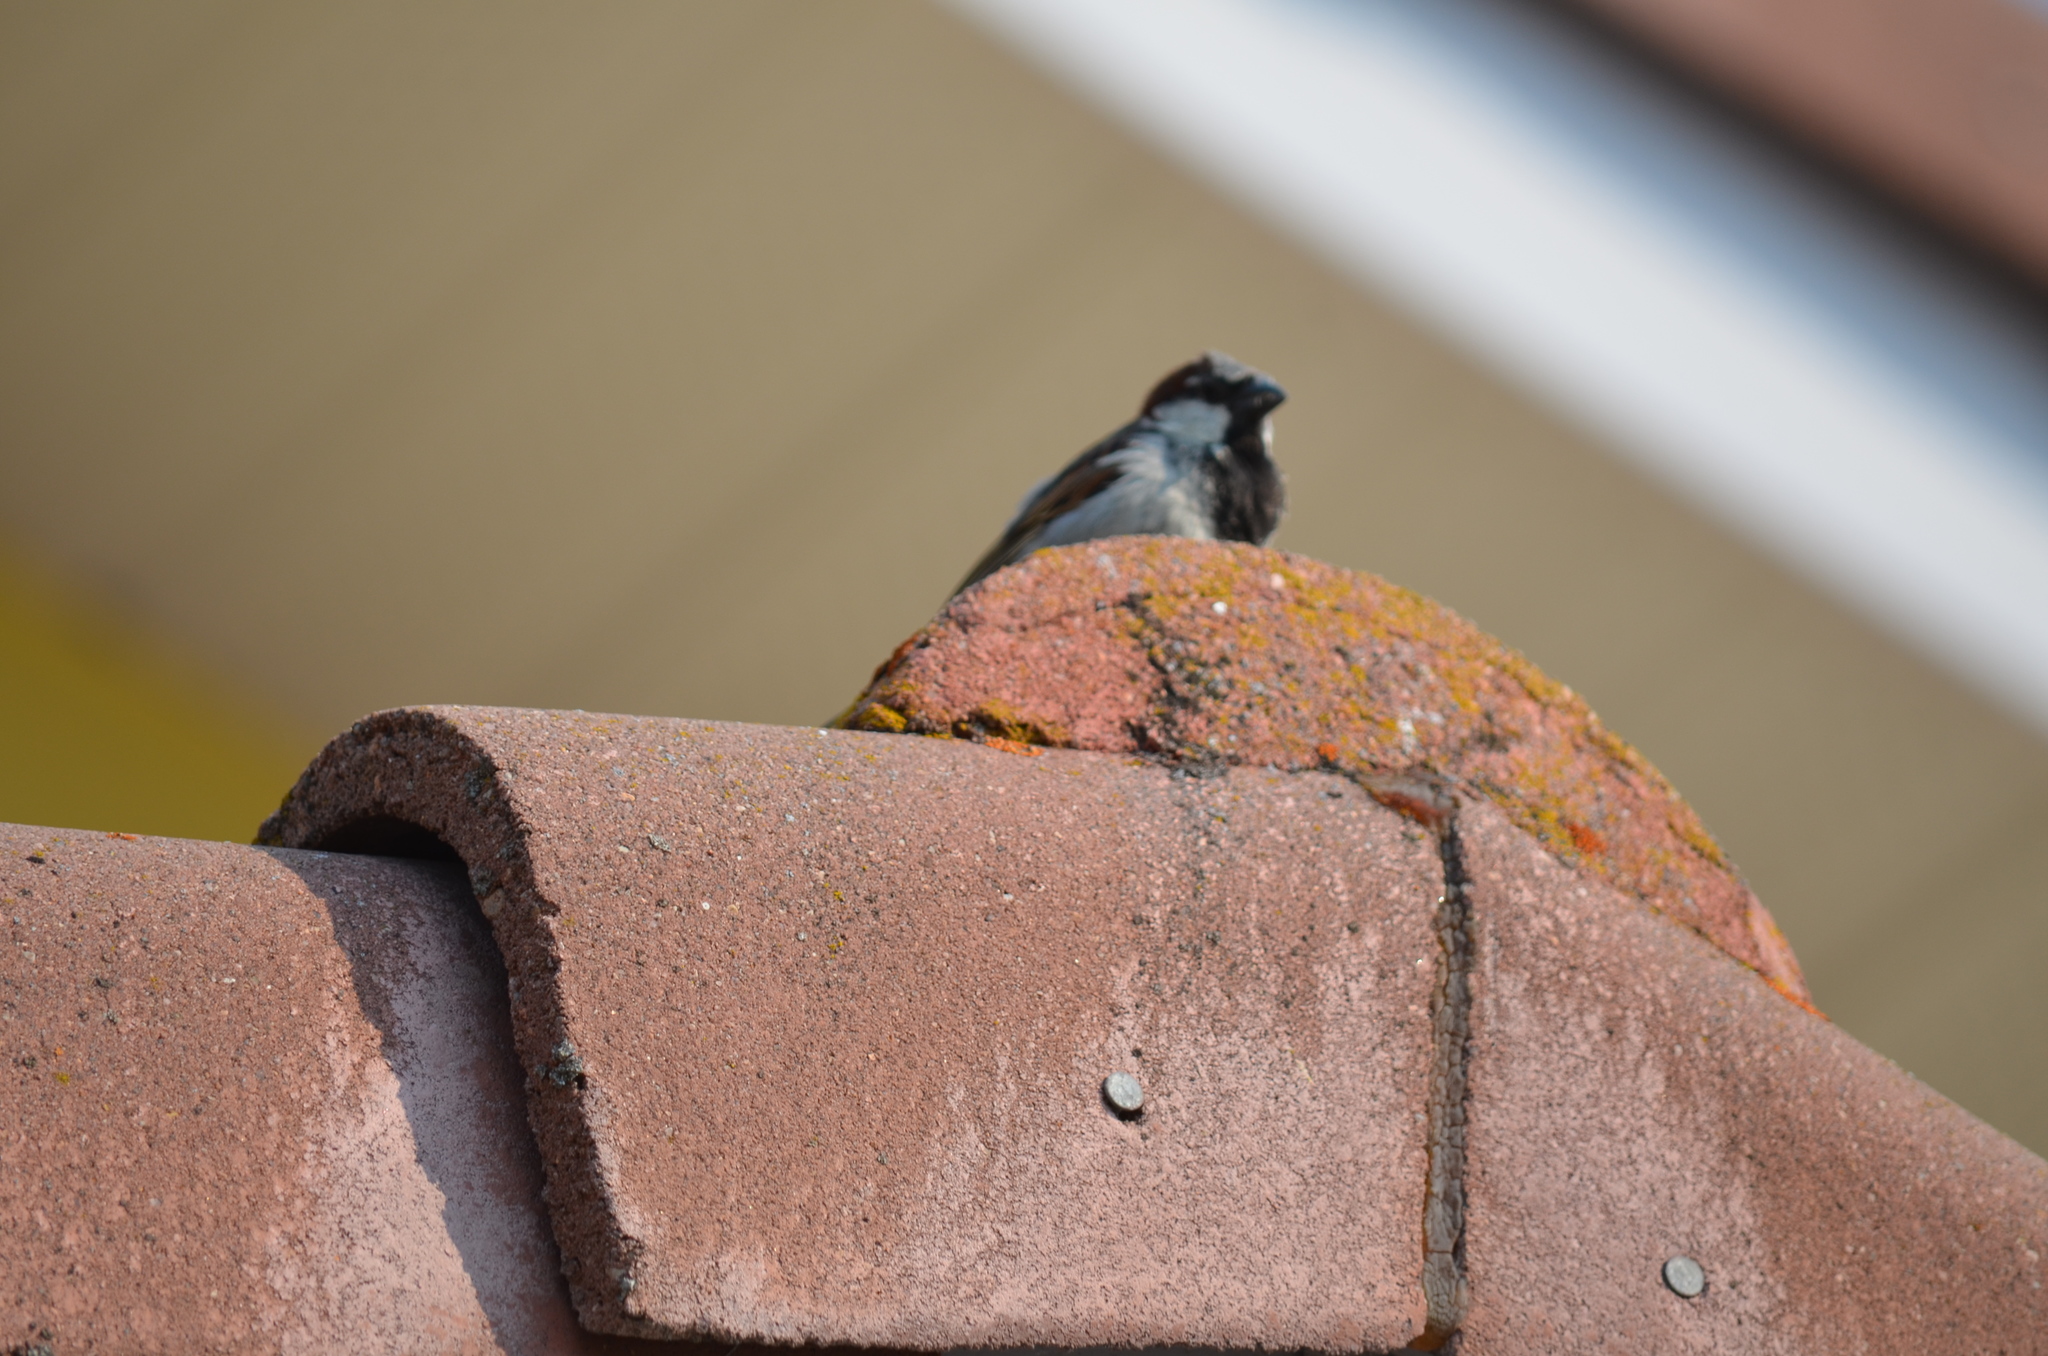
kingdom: Animalia
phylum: Chordata
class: Aves
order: Passeriformes
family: Passeridae
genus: Passer
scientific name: Passer domesticus
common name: House sparrow
